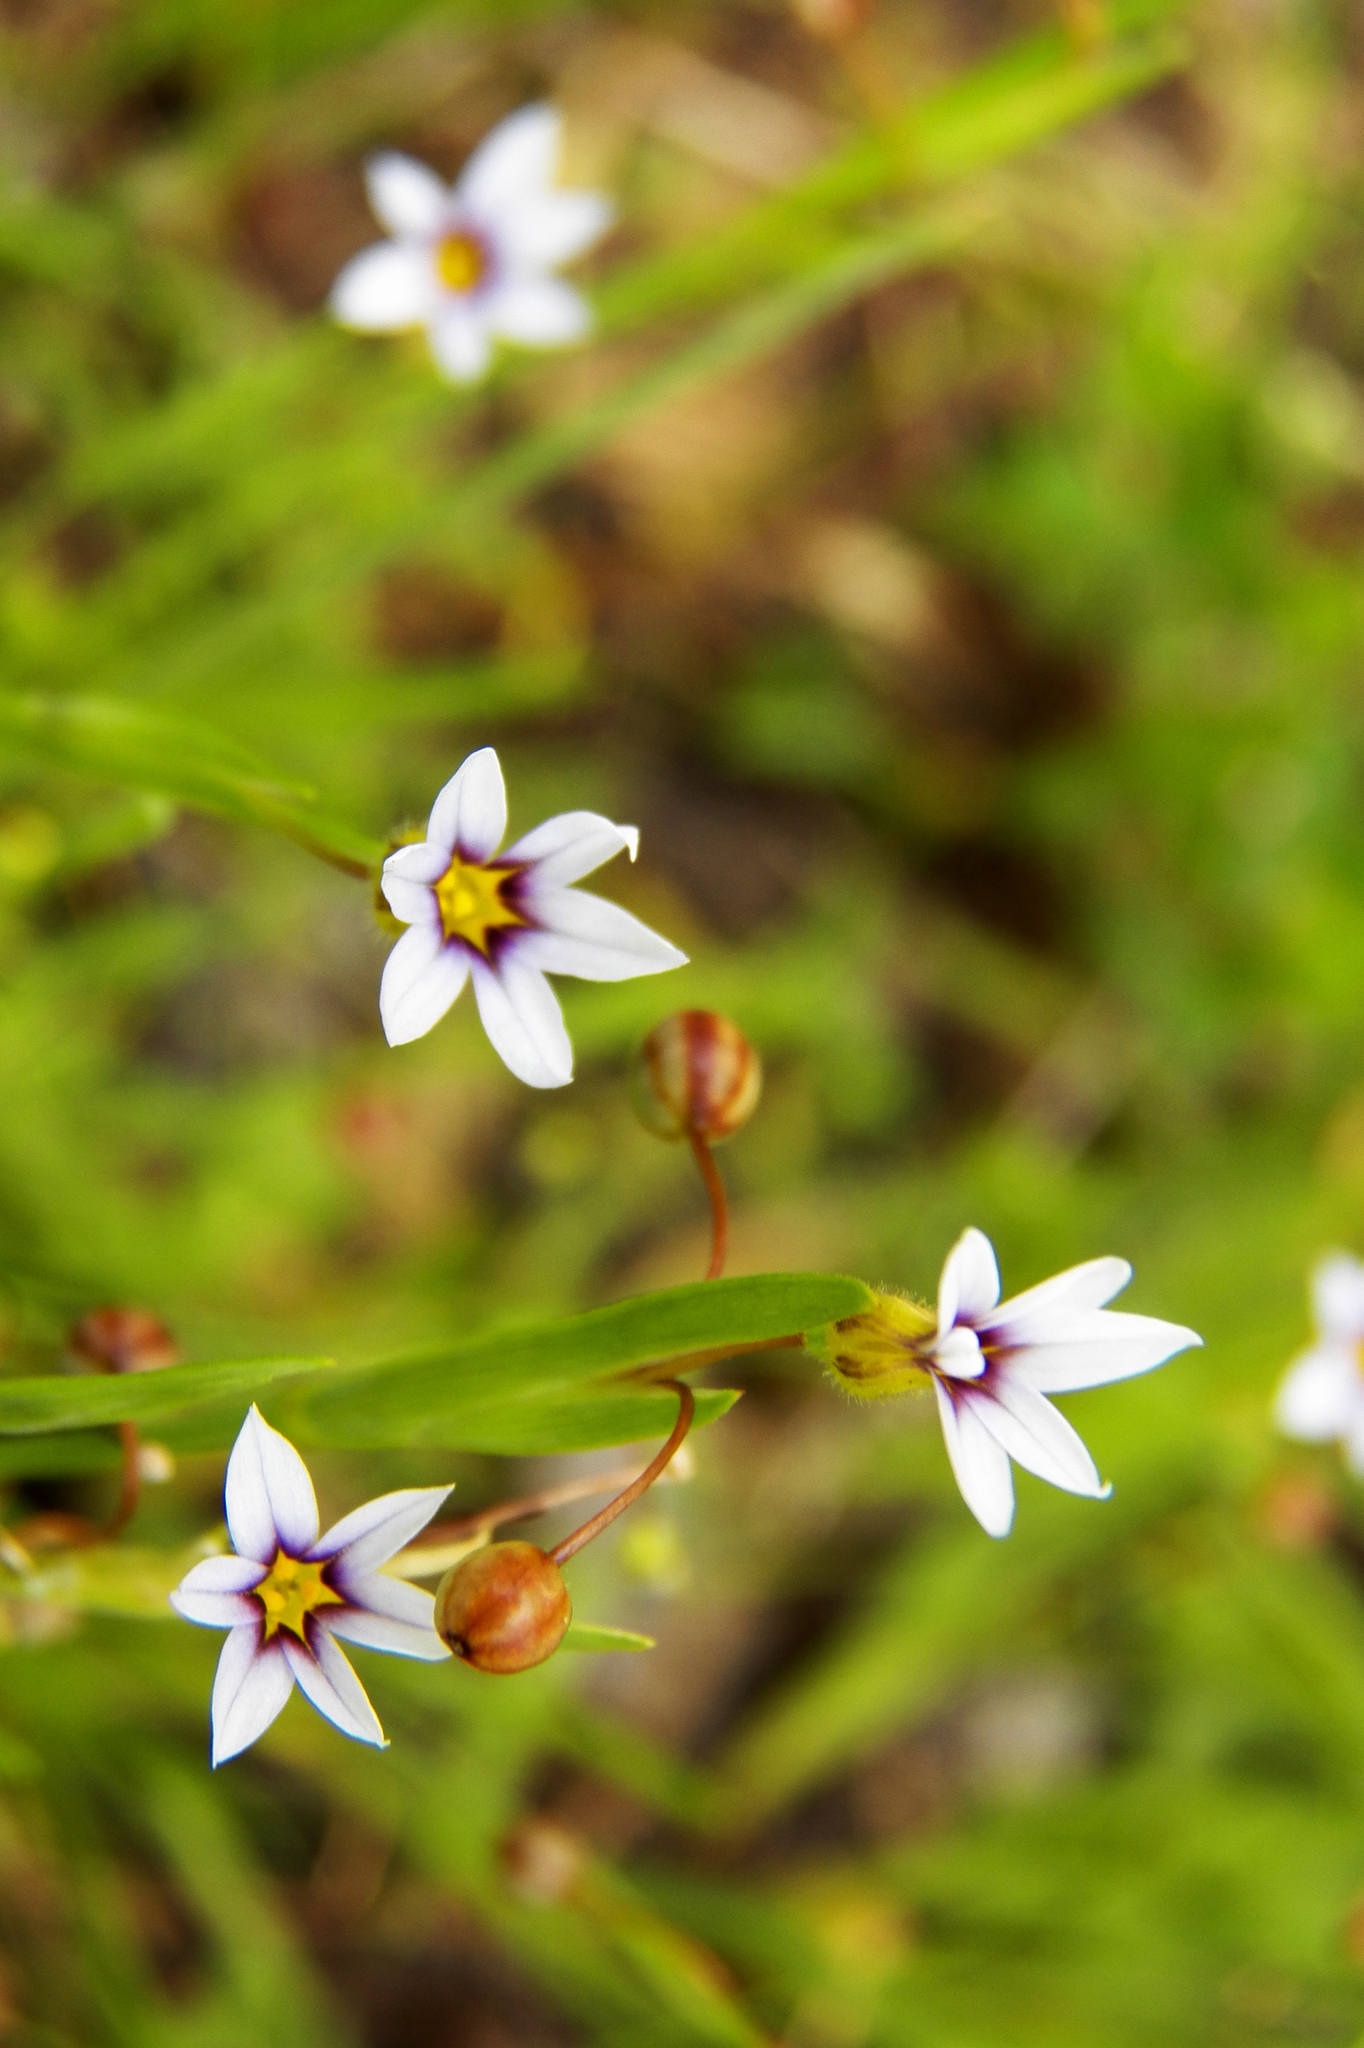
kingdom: Plantae
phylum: Tracheophyta
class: Liliopsida
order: Asparagales
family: Iridaceae
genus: Sisyrinchium
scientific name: Sisyrinchium micranthum
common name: Bermuda pigroot
